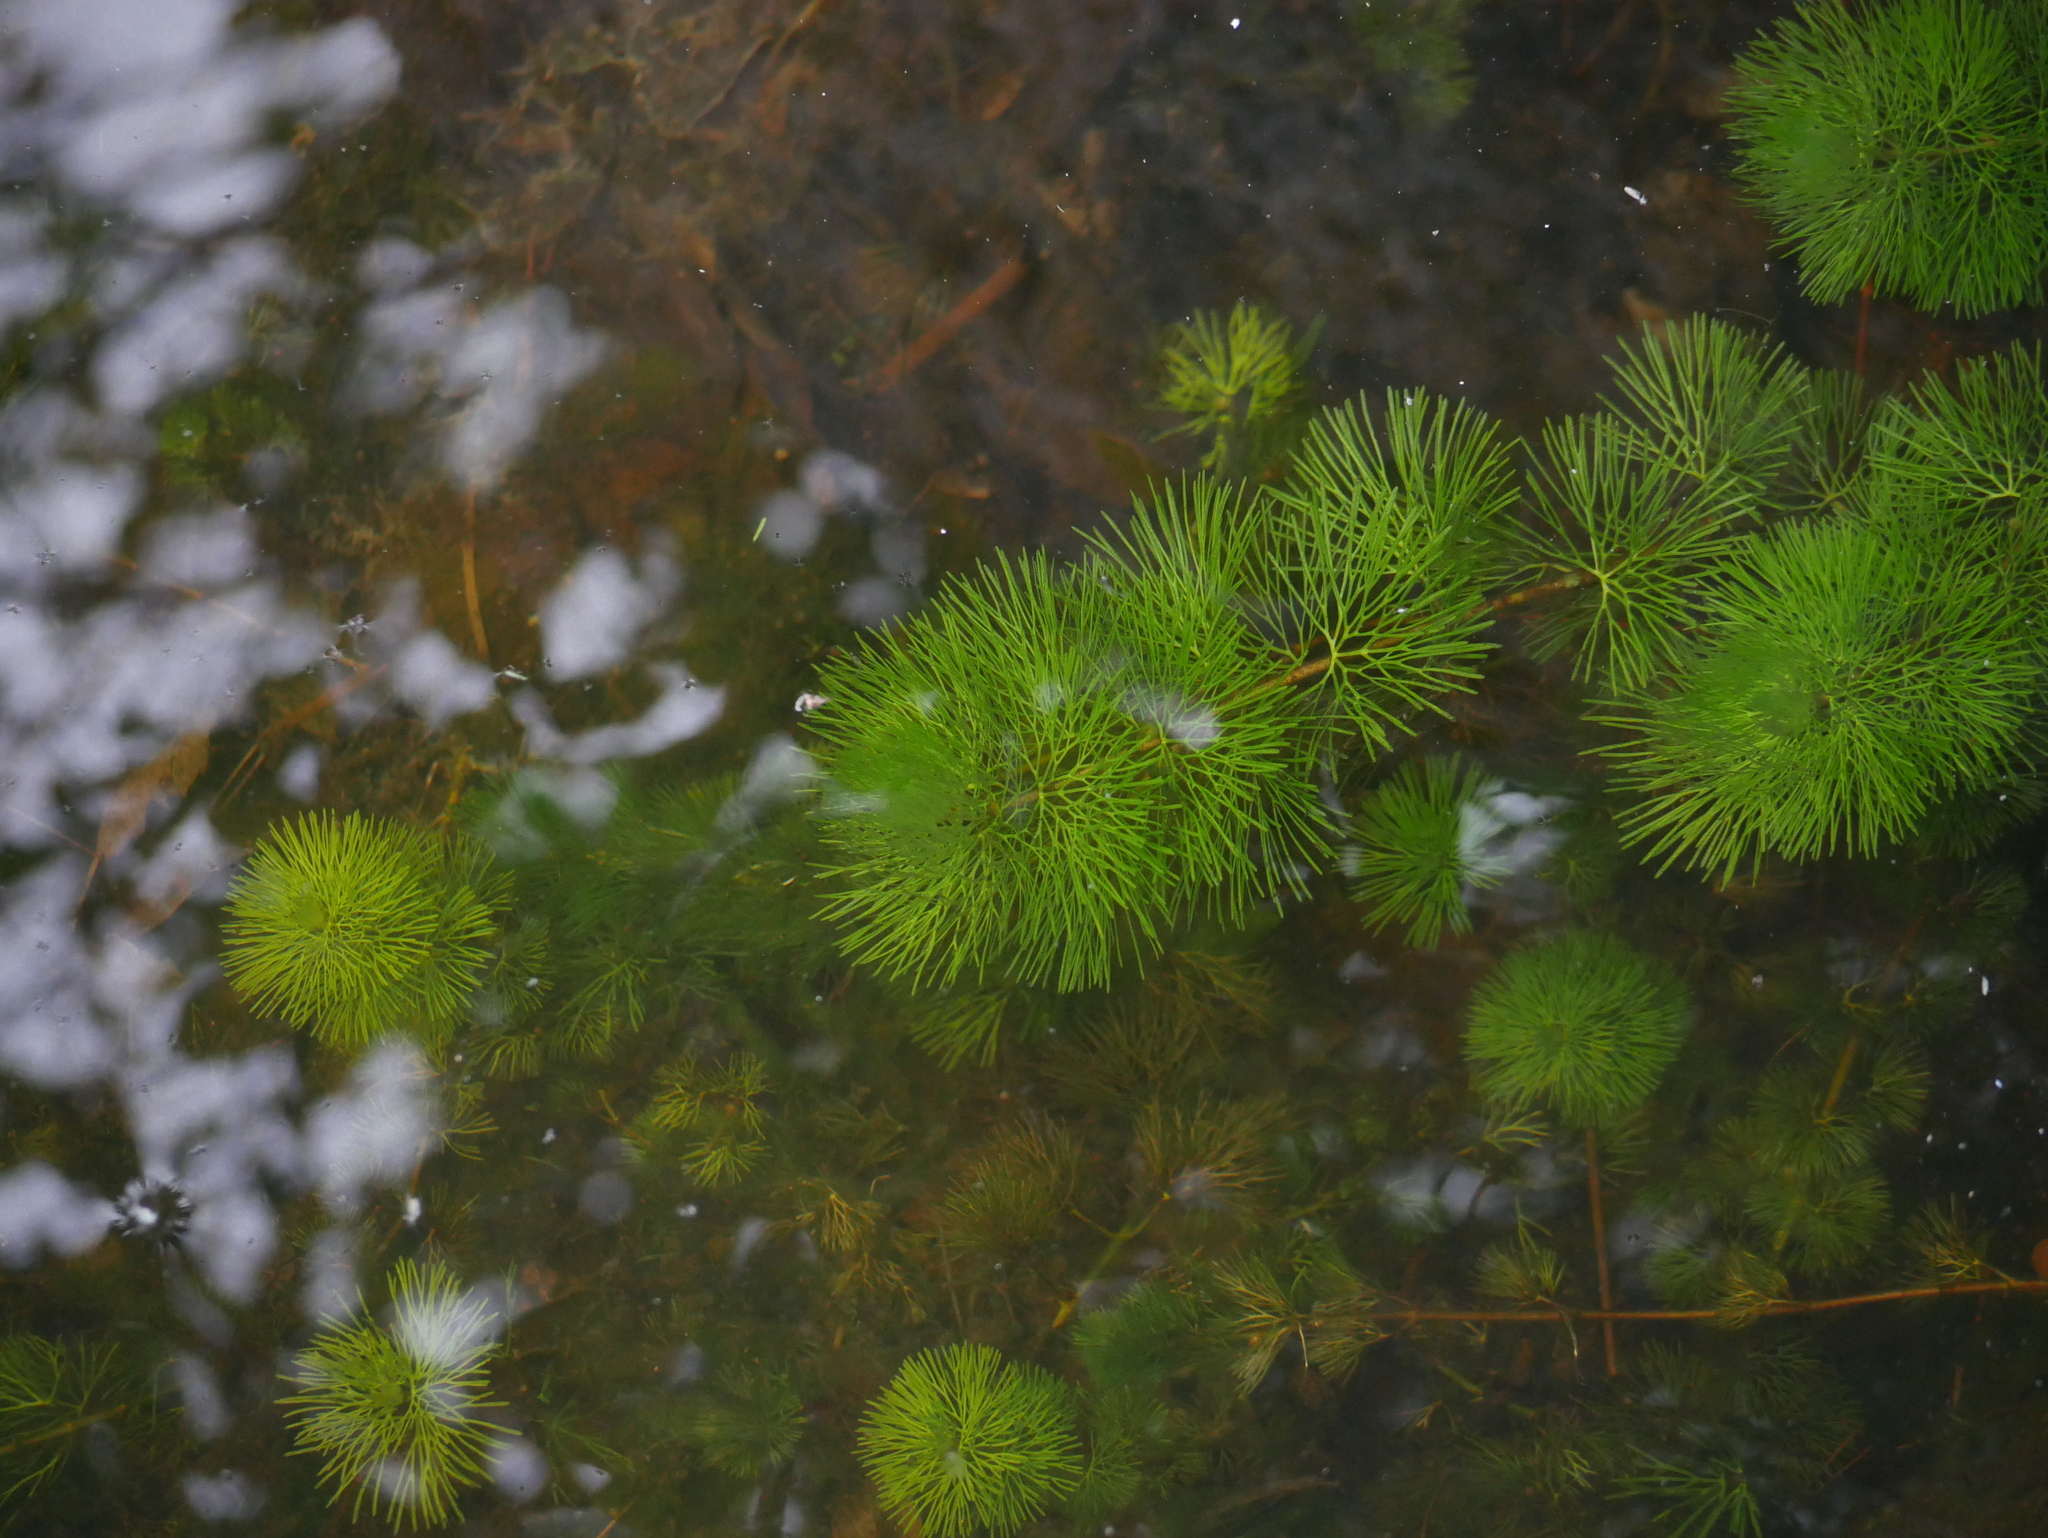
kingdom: Plantae
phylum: Tracheophyta
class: Magnoliopsida
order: Nymphaeales
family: Cabombaceae
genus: Cabomba
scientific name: Cabomba caroliniana
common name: Fanwort
